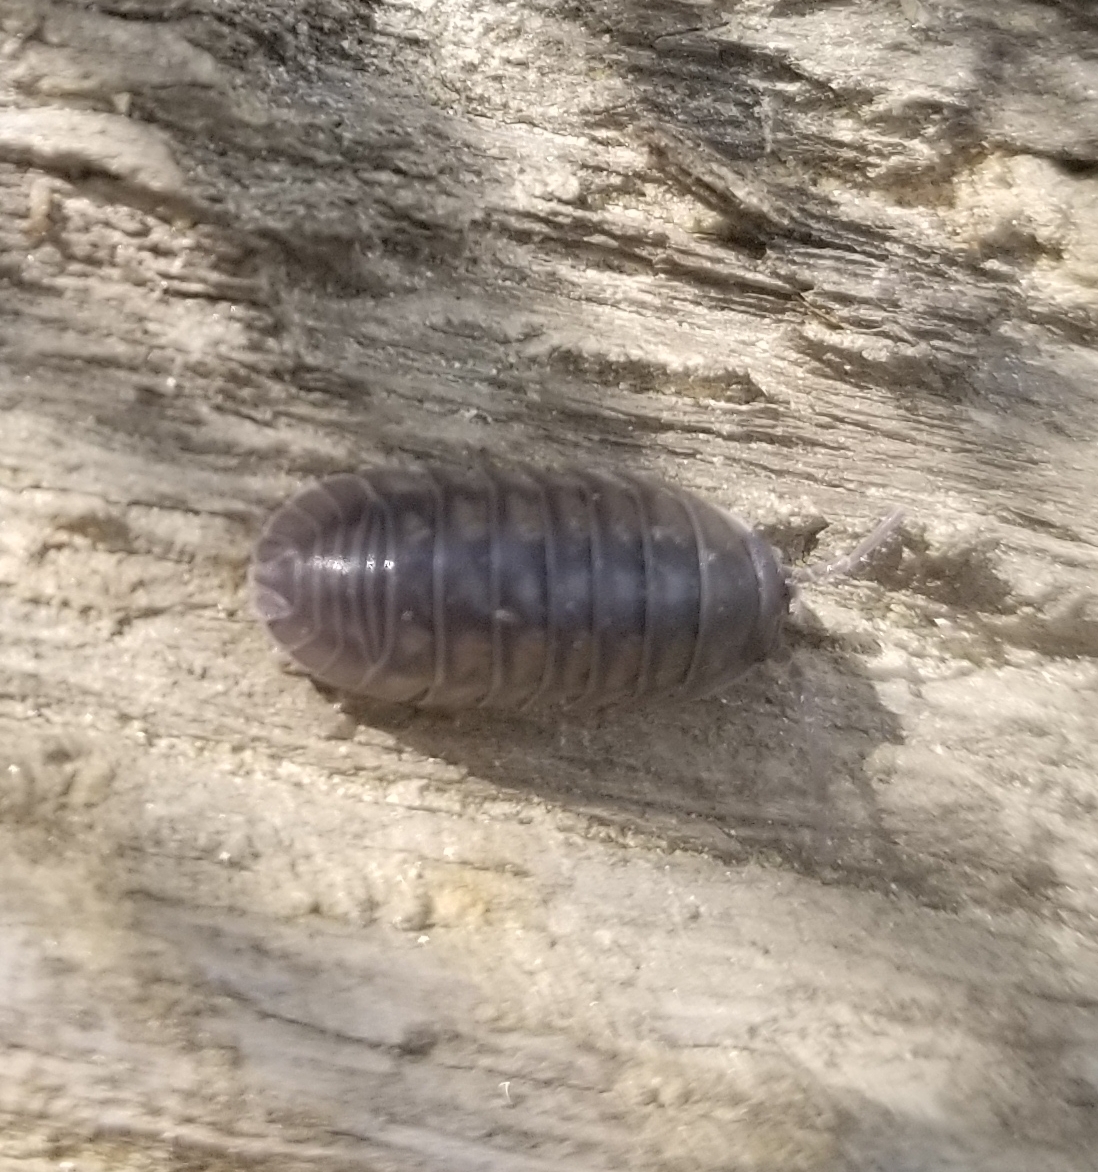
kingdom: Animalia
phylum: Arthropoda
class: Malacostraca
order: Isopoda
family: Armadillidiidae
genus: Armadillidium
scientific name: Armadillidium nasatum
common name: Isopod
